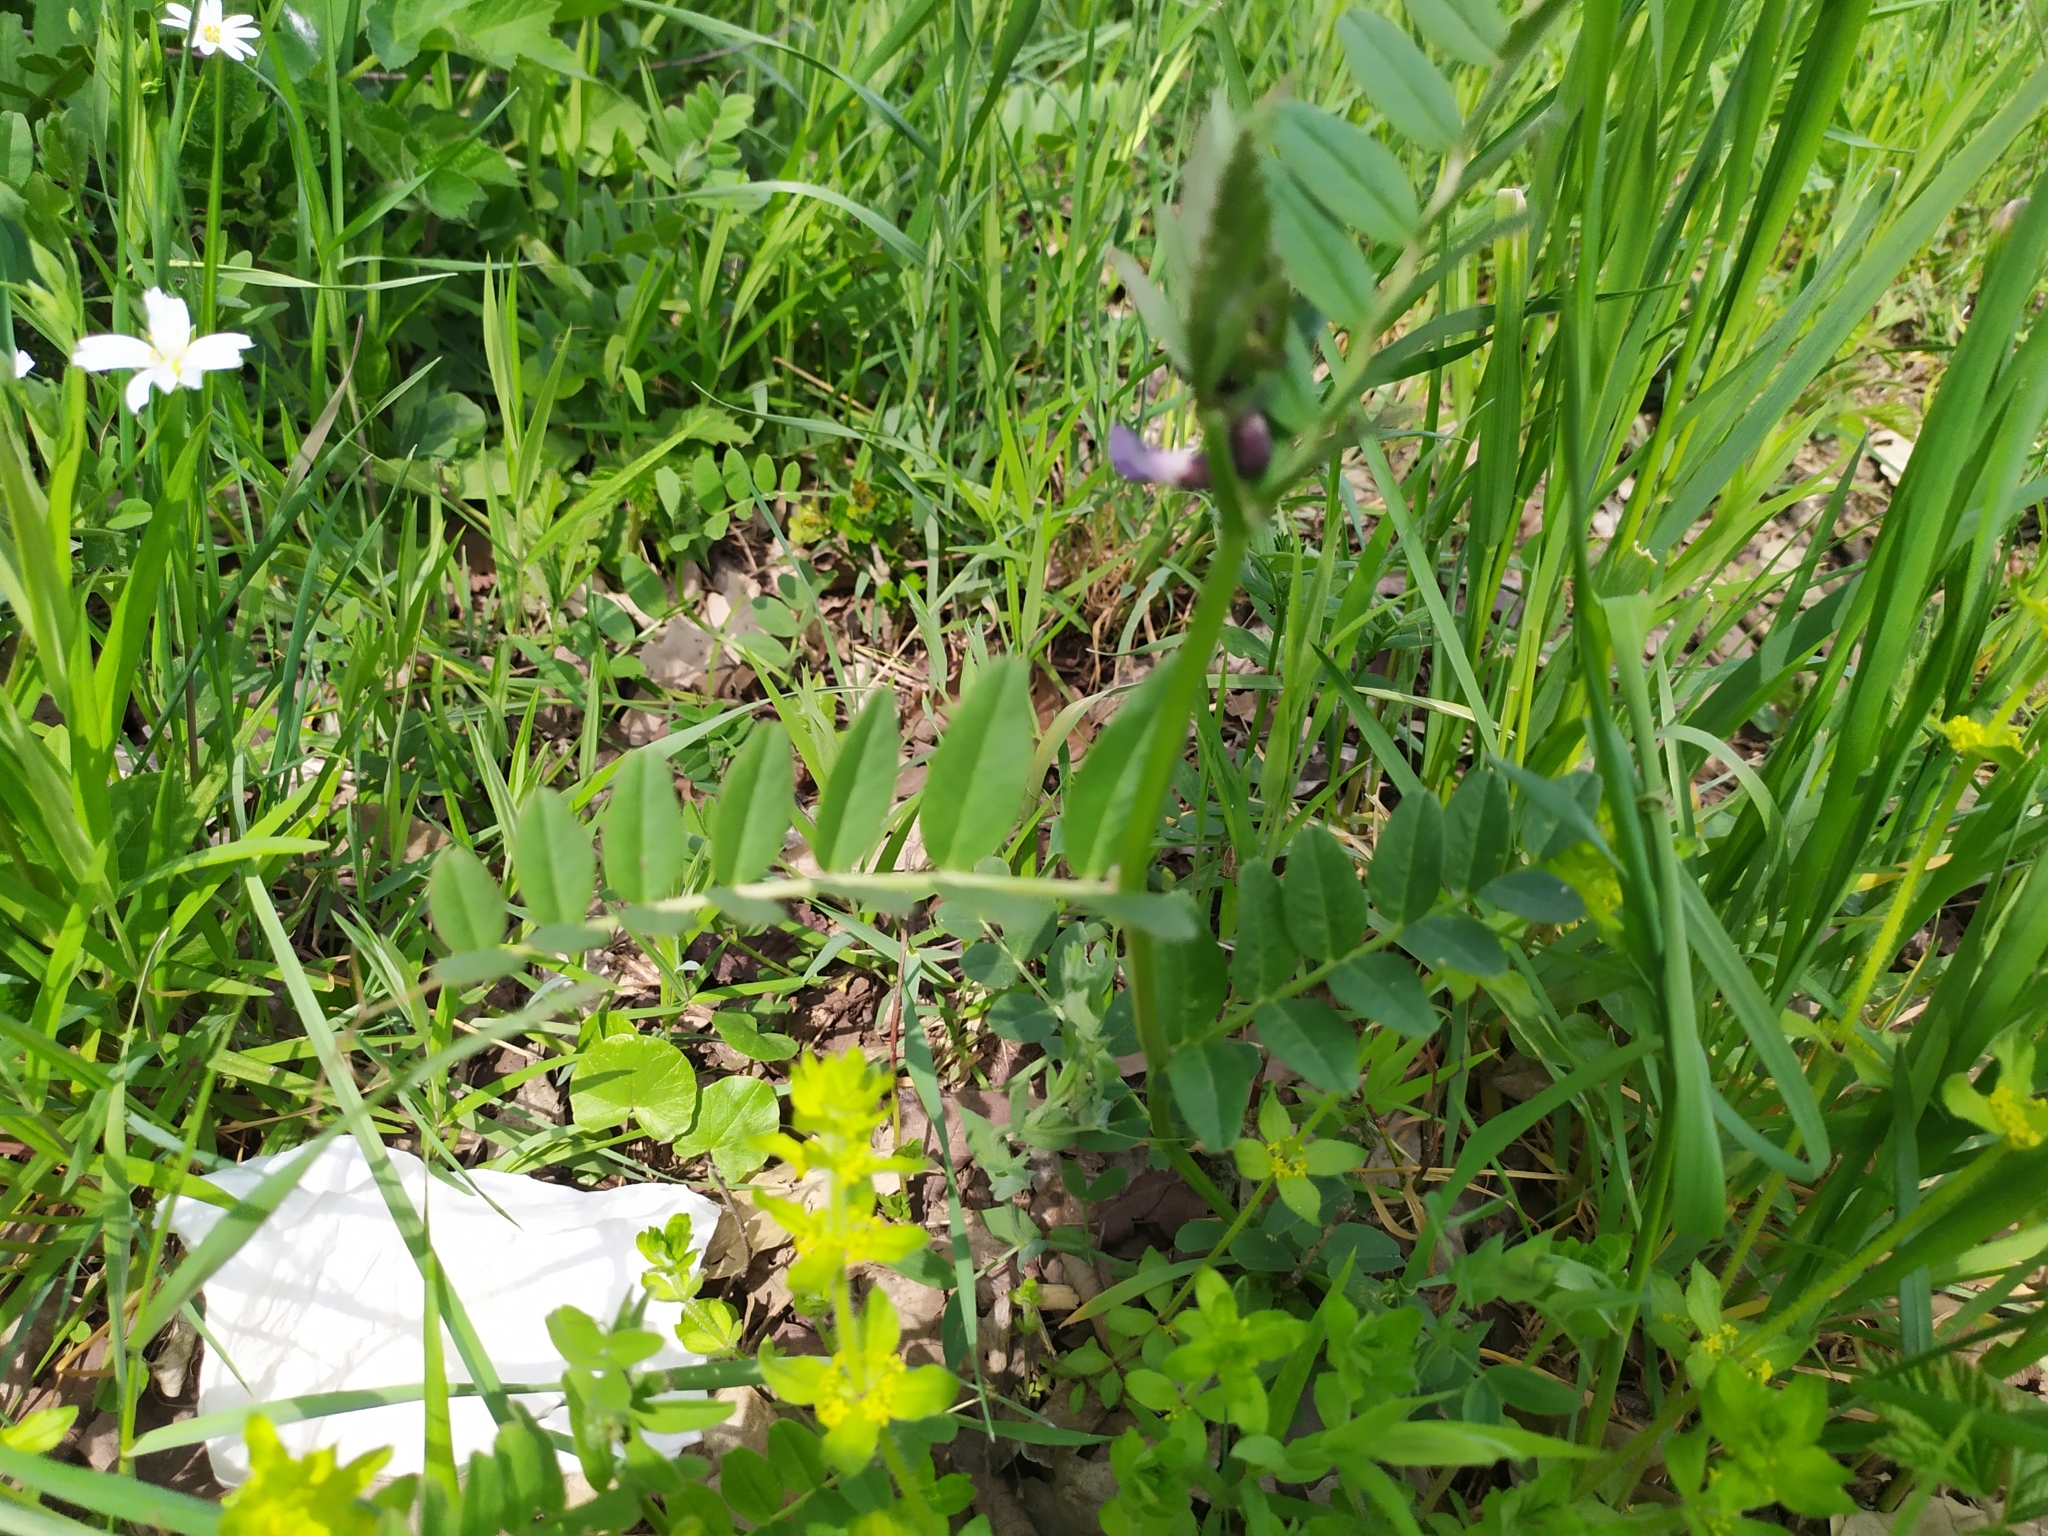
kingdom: Plantae
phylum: Tracheophyta
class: Magnoliopsida
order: Fabales
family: Fabaceae
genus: Vicia
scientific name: Vicia sepium
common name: Bush vetch
